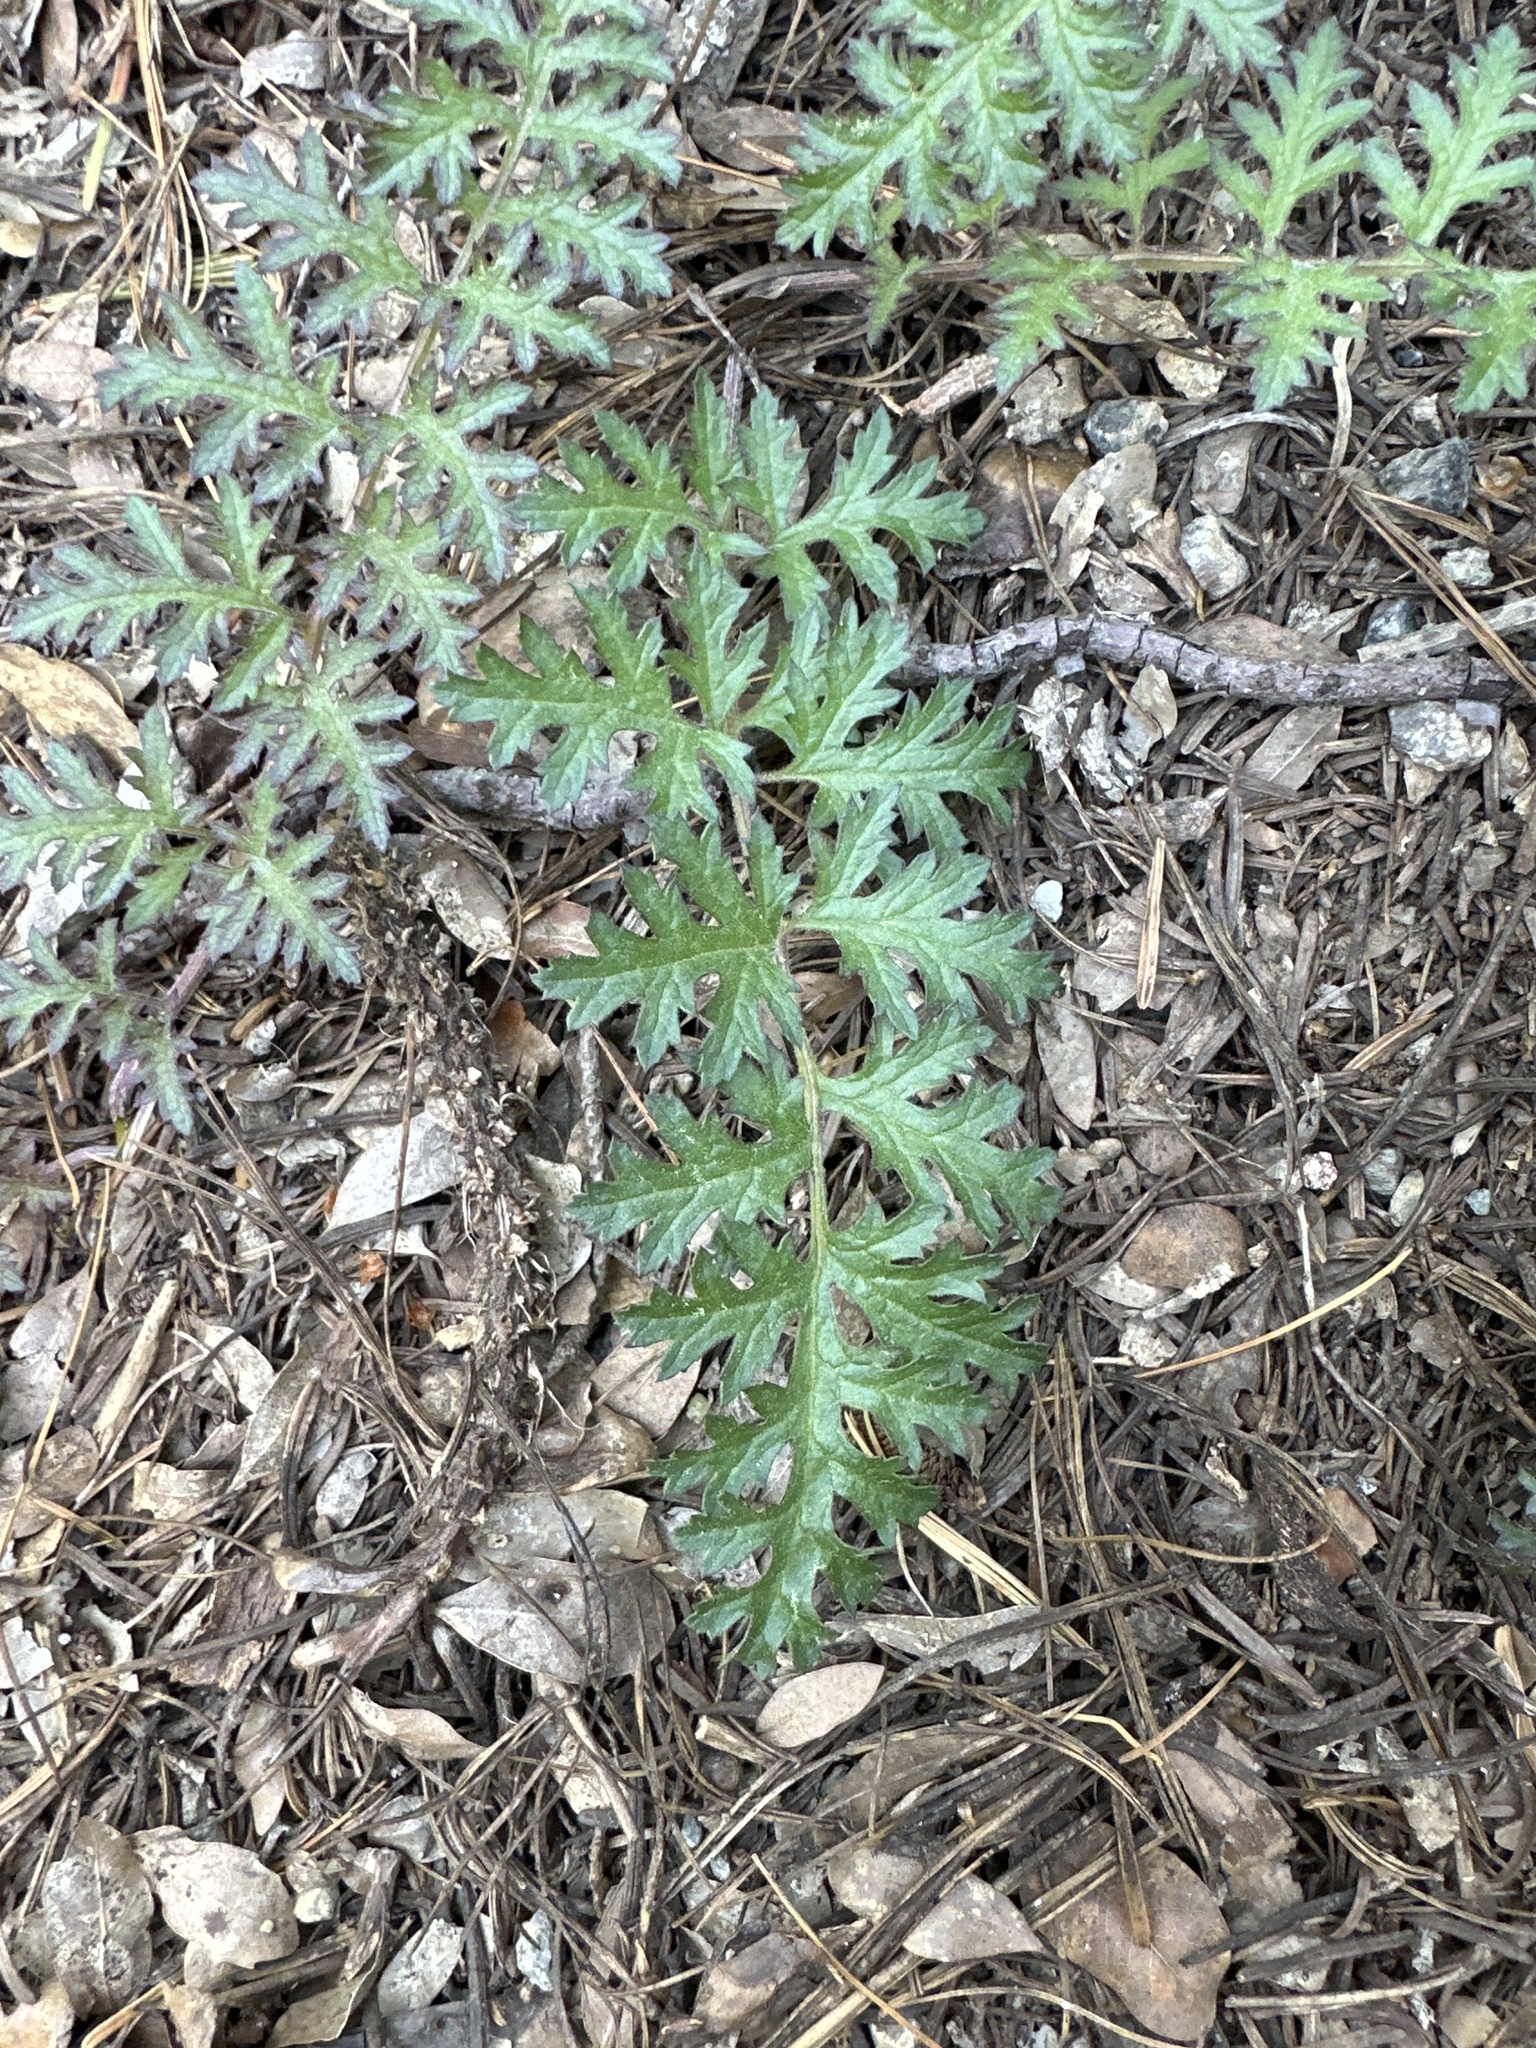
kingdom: Plantae
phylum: Tracheophyta
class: Magnoliopsida
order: Lamiales
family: Orobanchaceae
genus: Pedicularis
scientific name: Pedicularis densiflora
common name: Indian warrior
